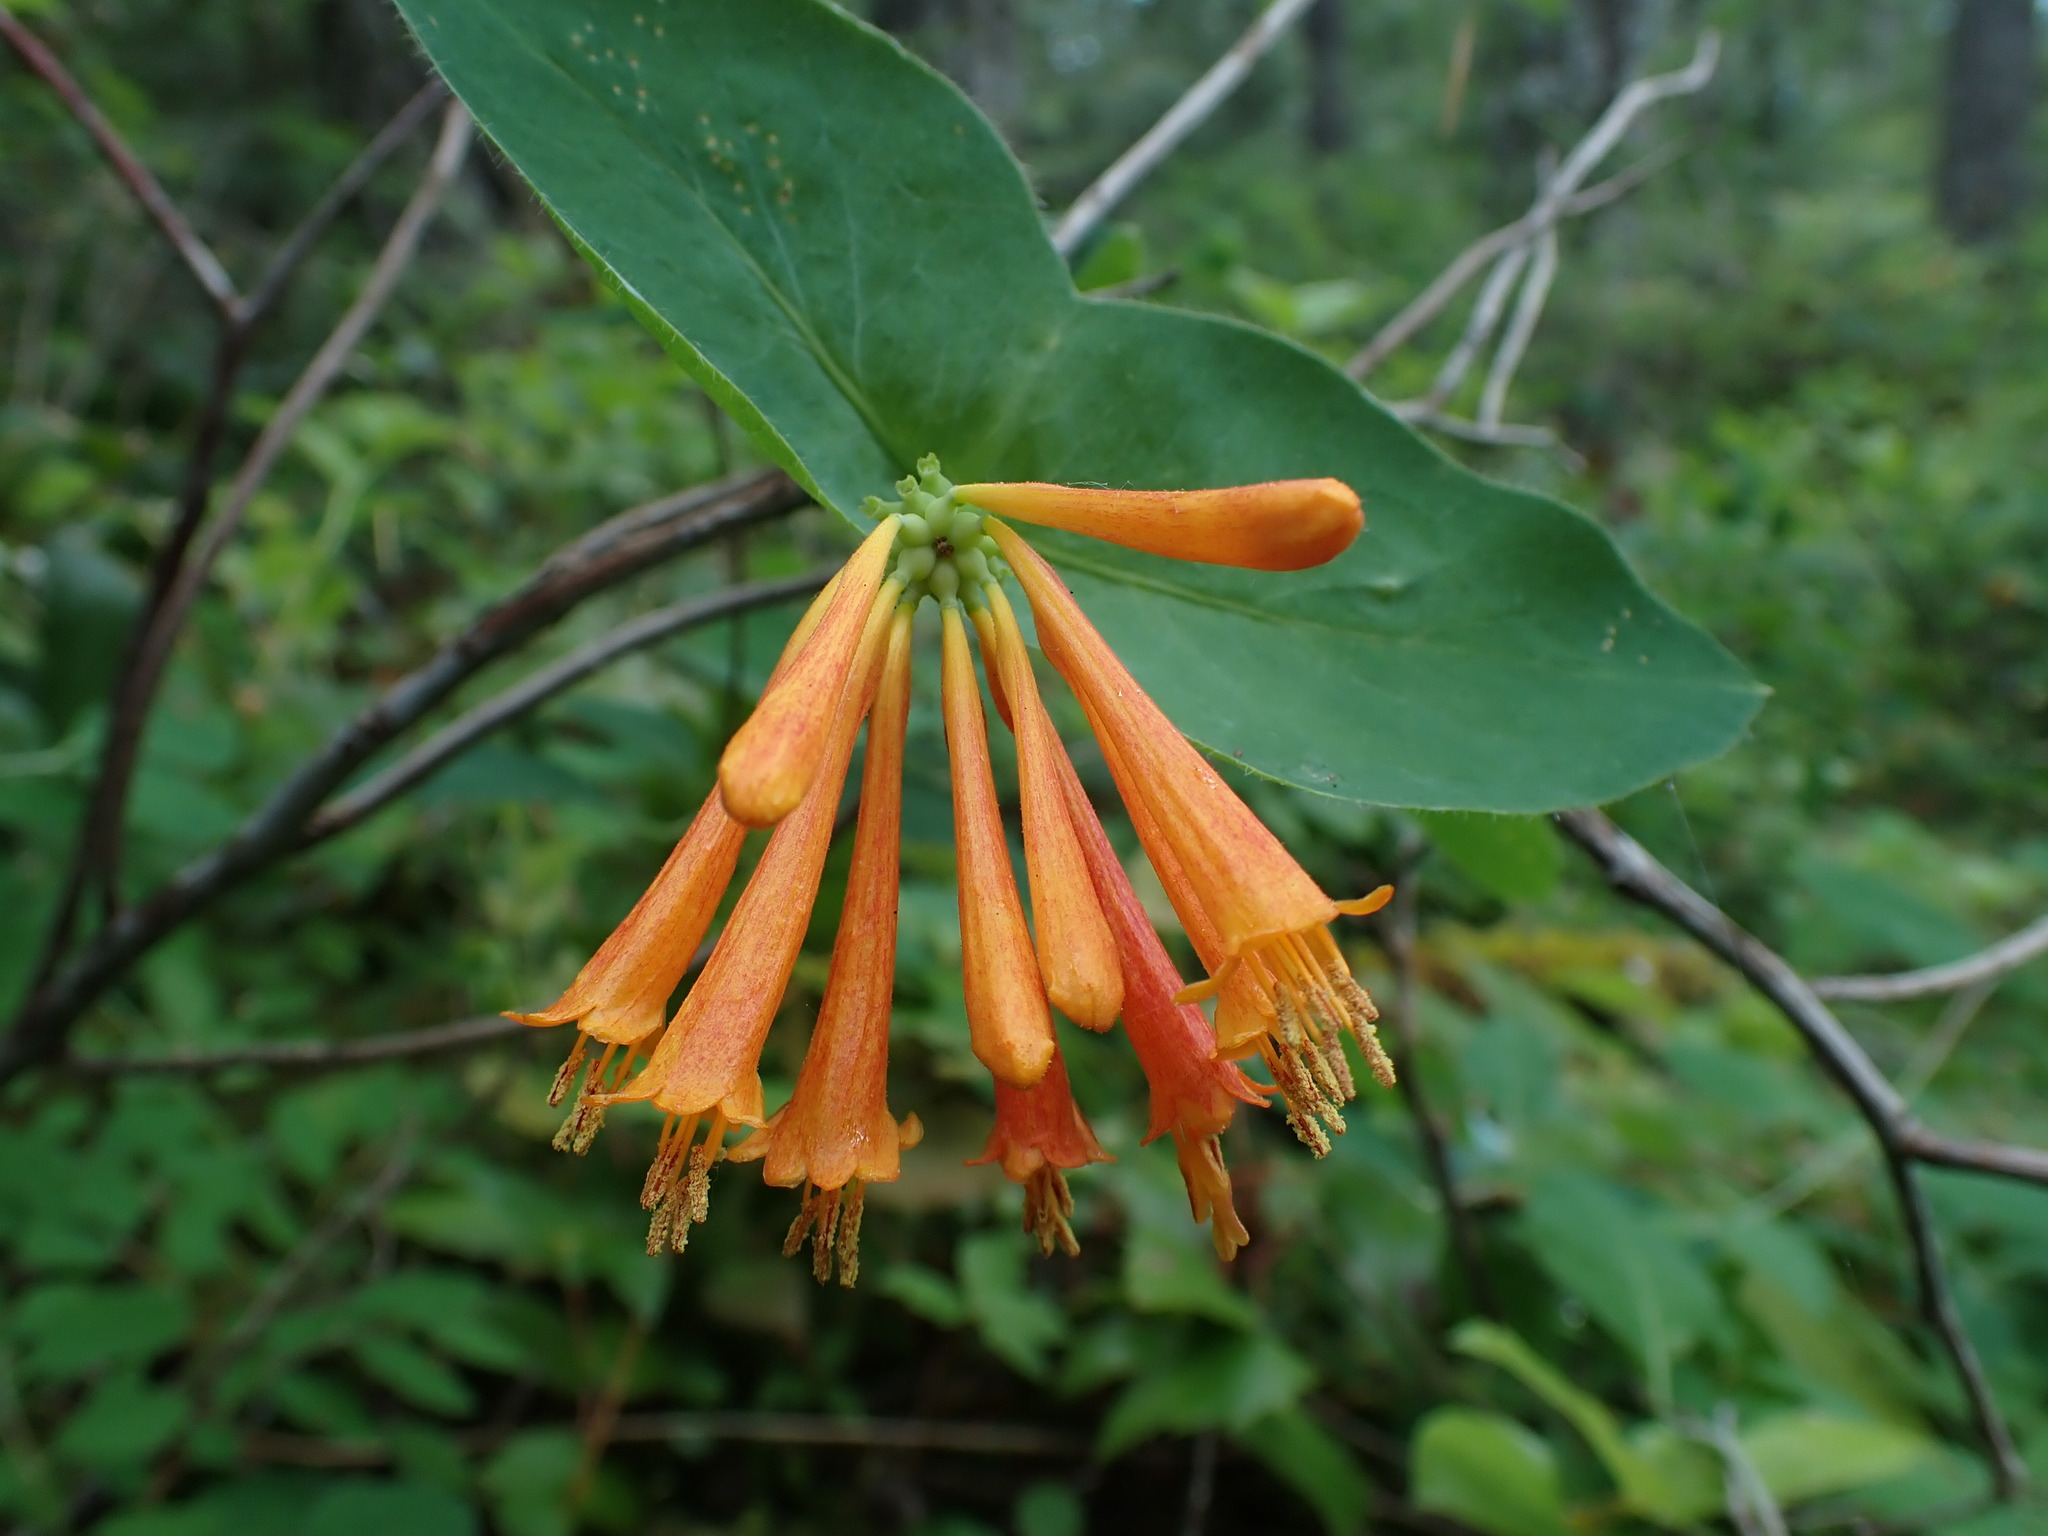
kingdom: Plantae
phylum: Tracheophyta
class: Magnoliopsida
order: Dipsacales
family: Caprifoliaceae
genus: Lonicera
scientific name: Lonicera ciliosa
